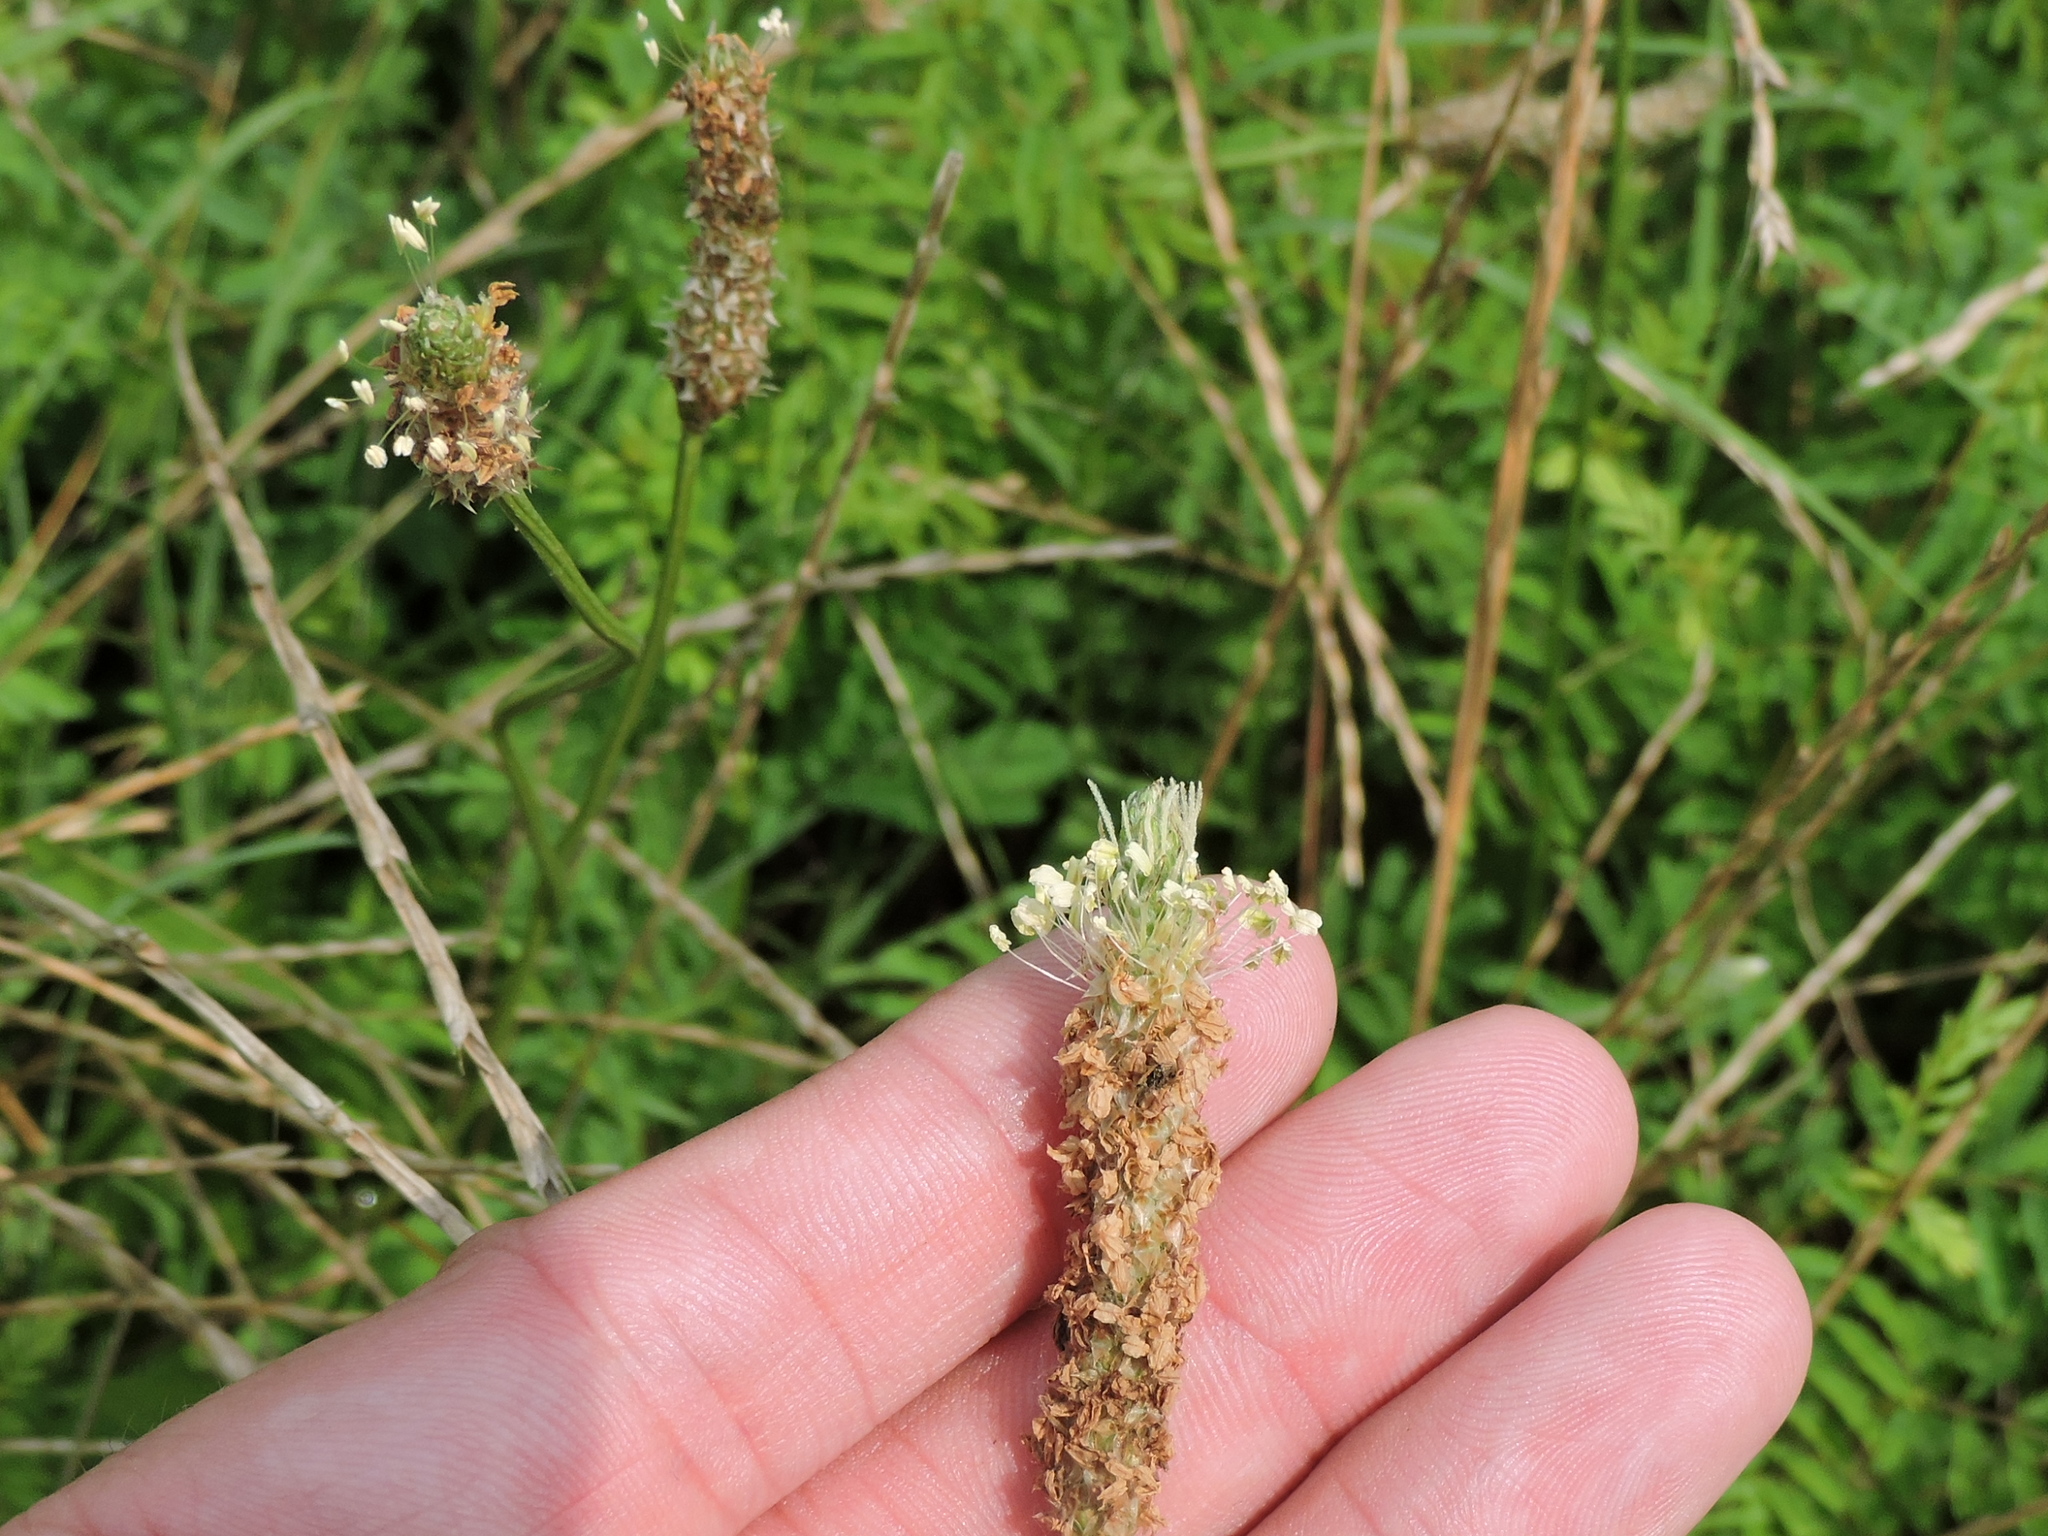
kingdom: Plantae
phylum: Tracheophyta
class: Magnoliopsida
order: Lamiales
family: Plantaginaceae
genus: Plantago
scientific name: Plantago lanceolata
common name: Ribwort plantain
